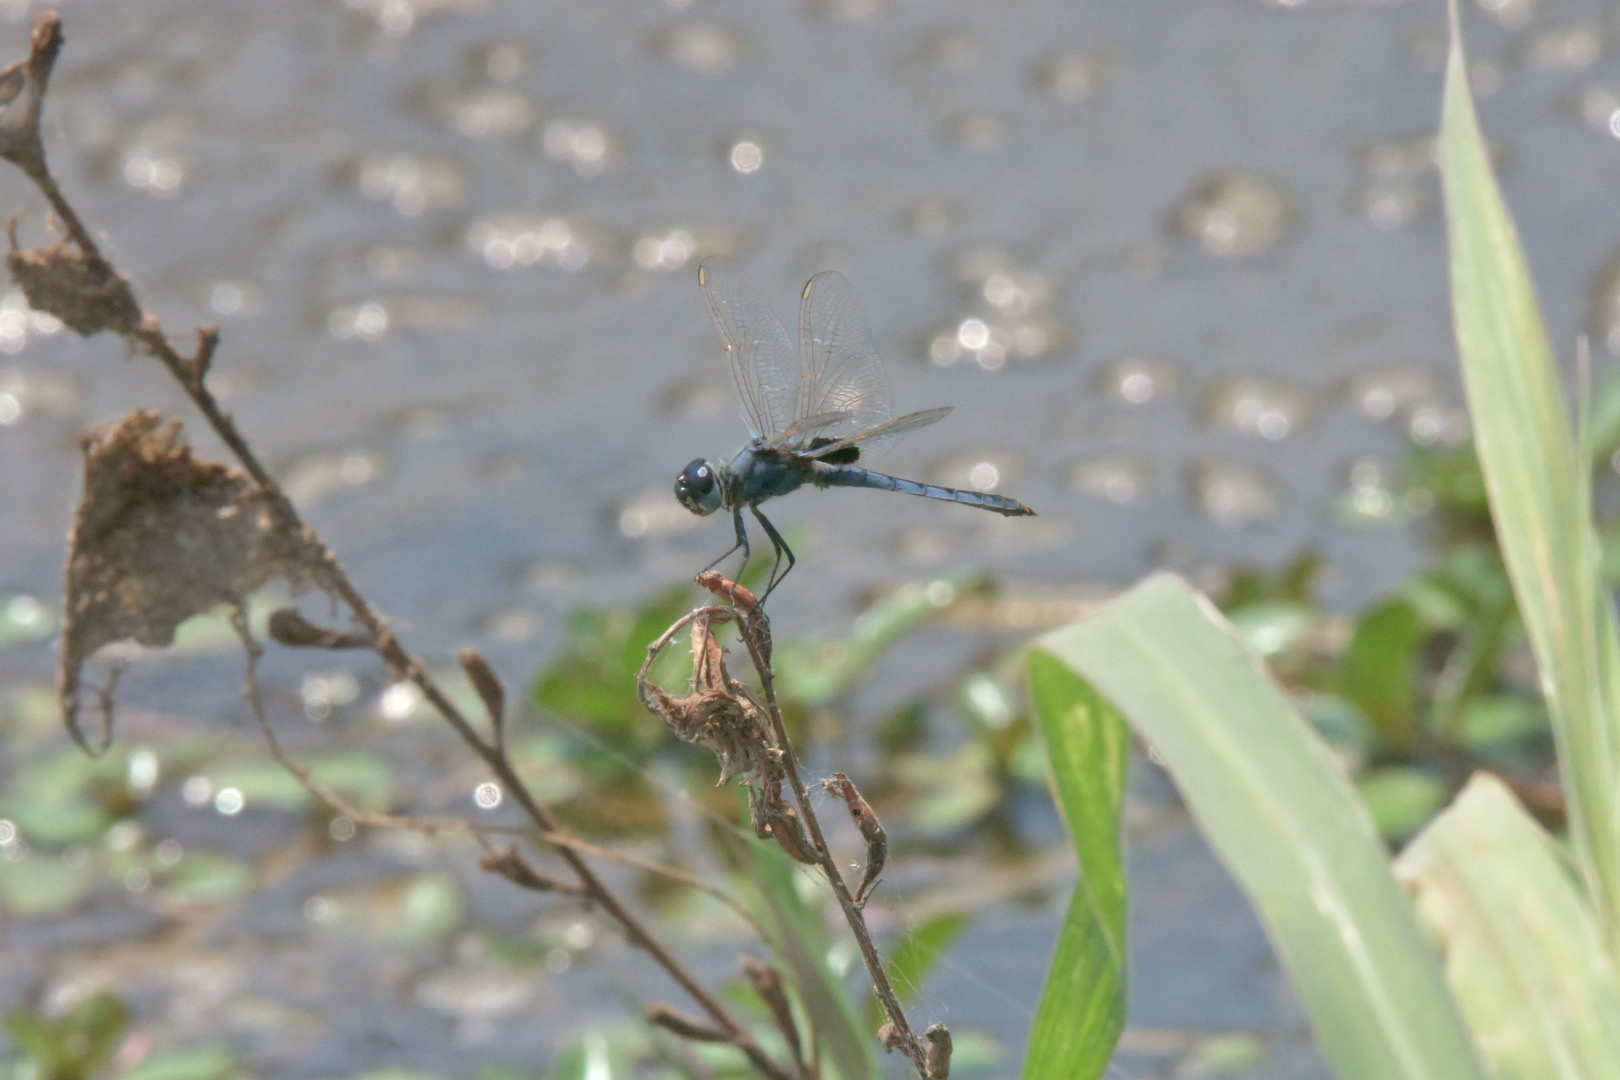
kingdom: Animalia
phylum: Arthropoda
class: Insecta
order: Odonata
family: Libellulidae
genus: Urothemis
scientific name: Urothemis edwardsii
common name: Blue basker
